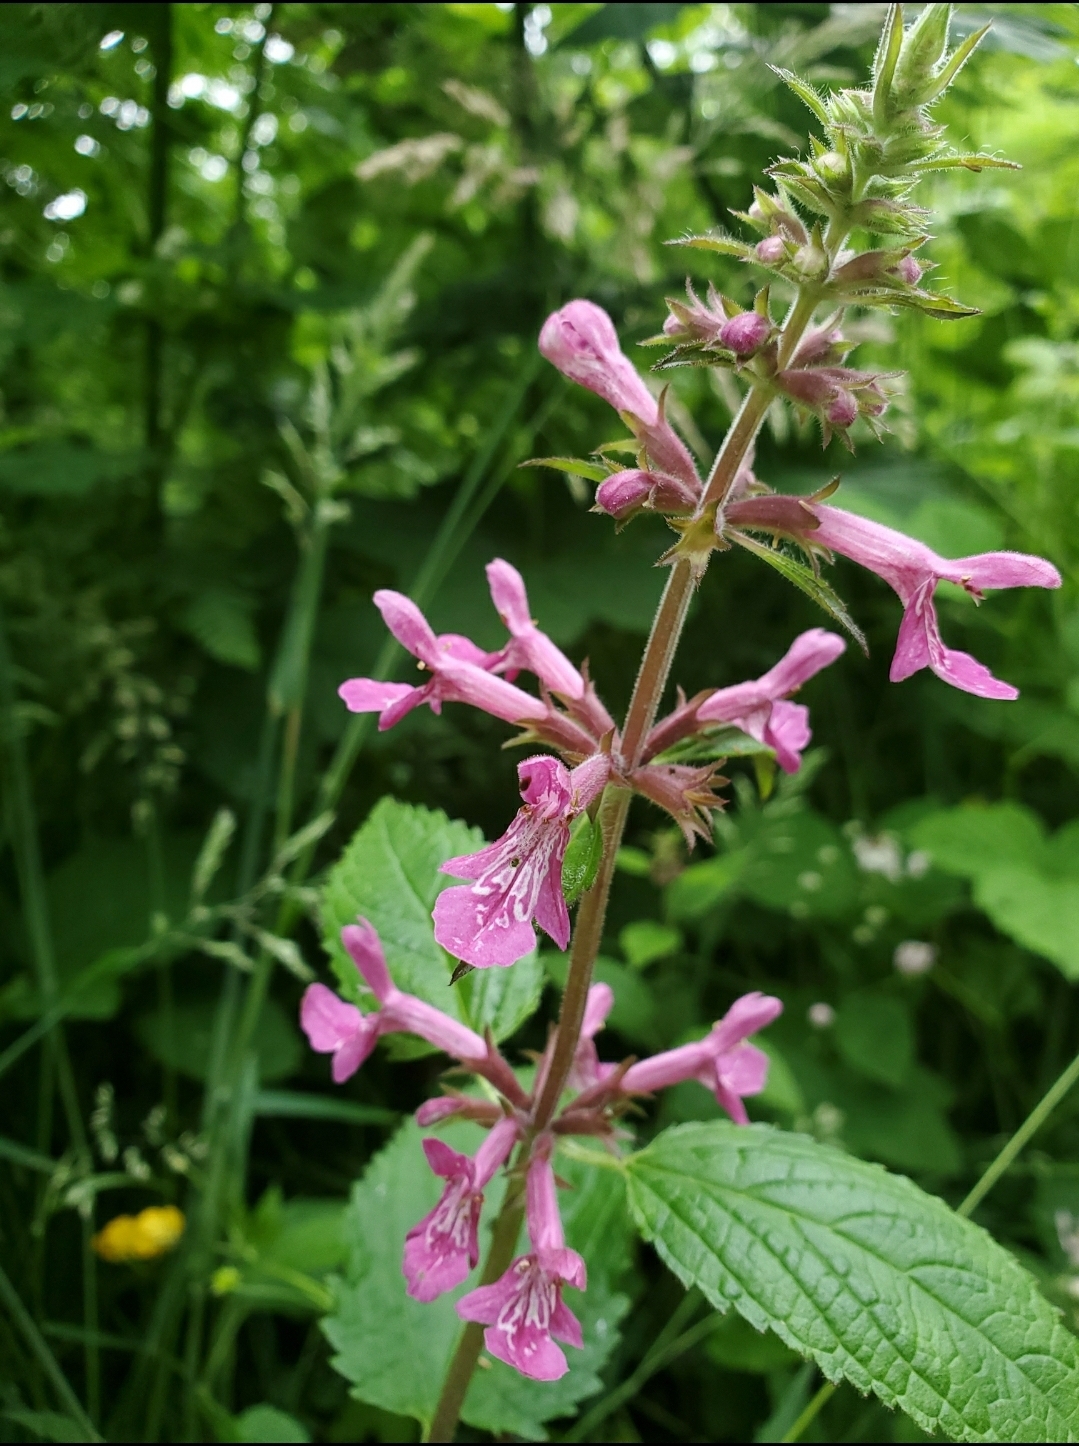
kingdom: Plantae
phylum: Tracheophyta
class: Magnoliopsida
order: Lamiales
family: Lamiaceae
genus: Stachys
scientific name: Stachys chamissonis
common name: Coastal hedge-nettle
